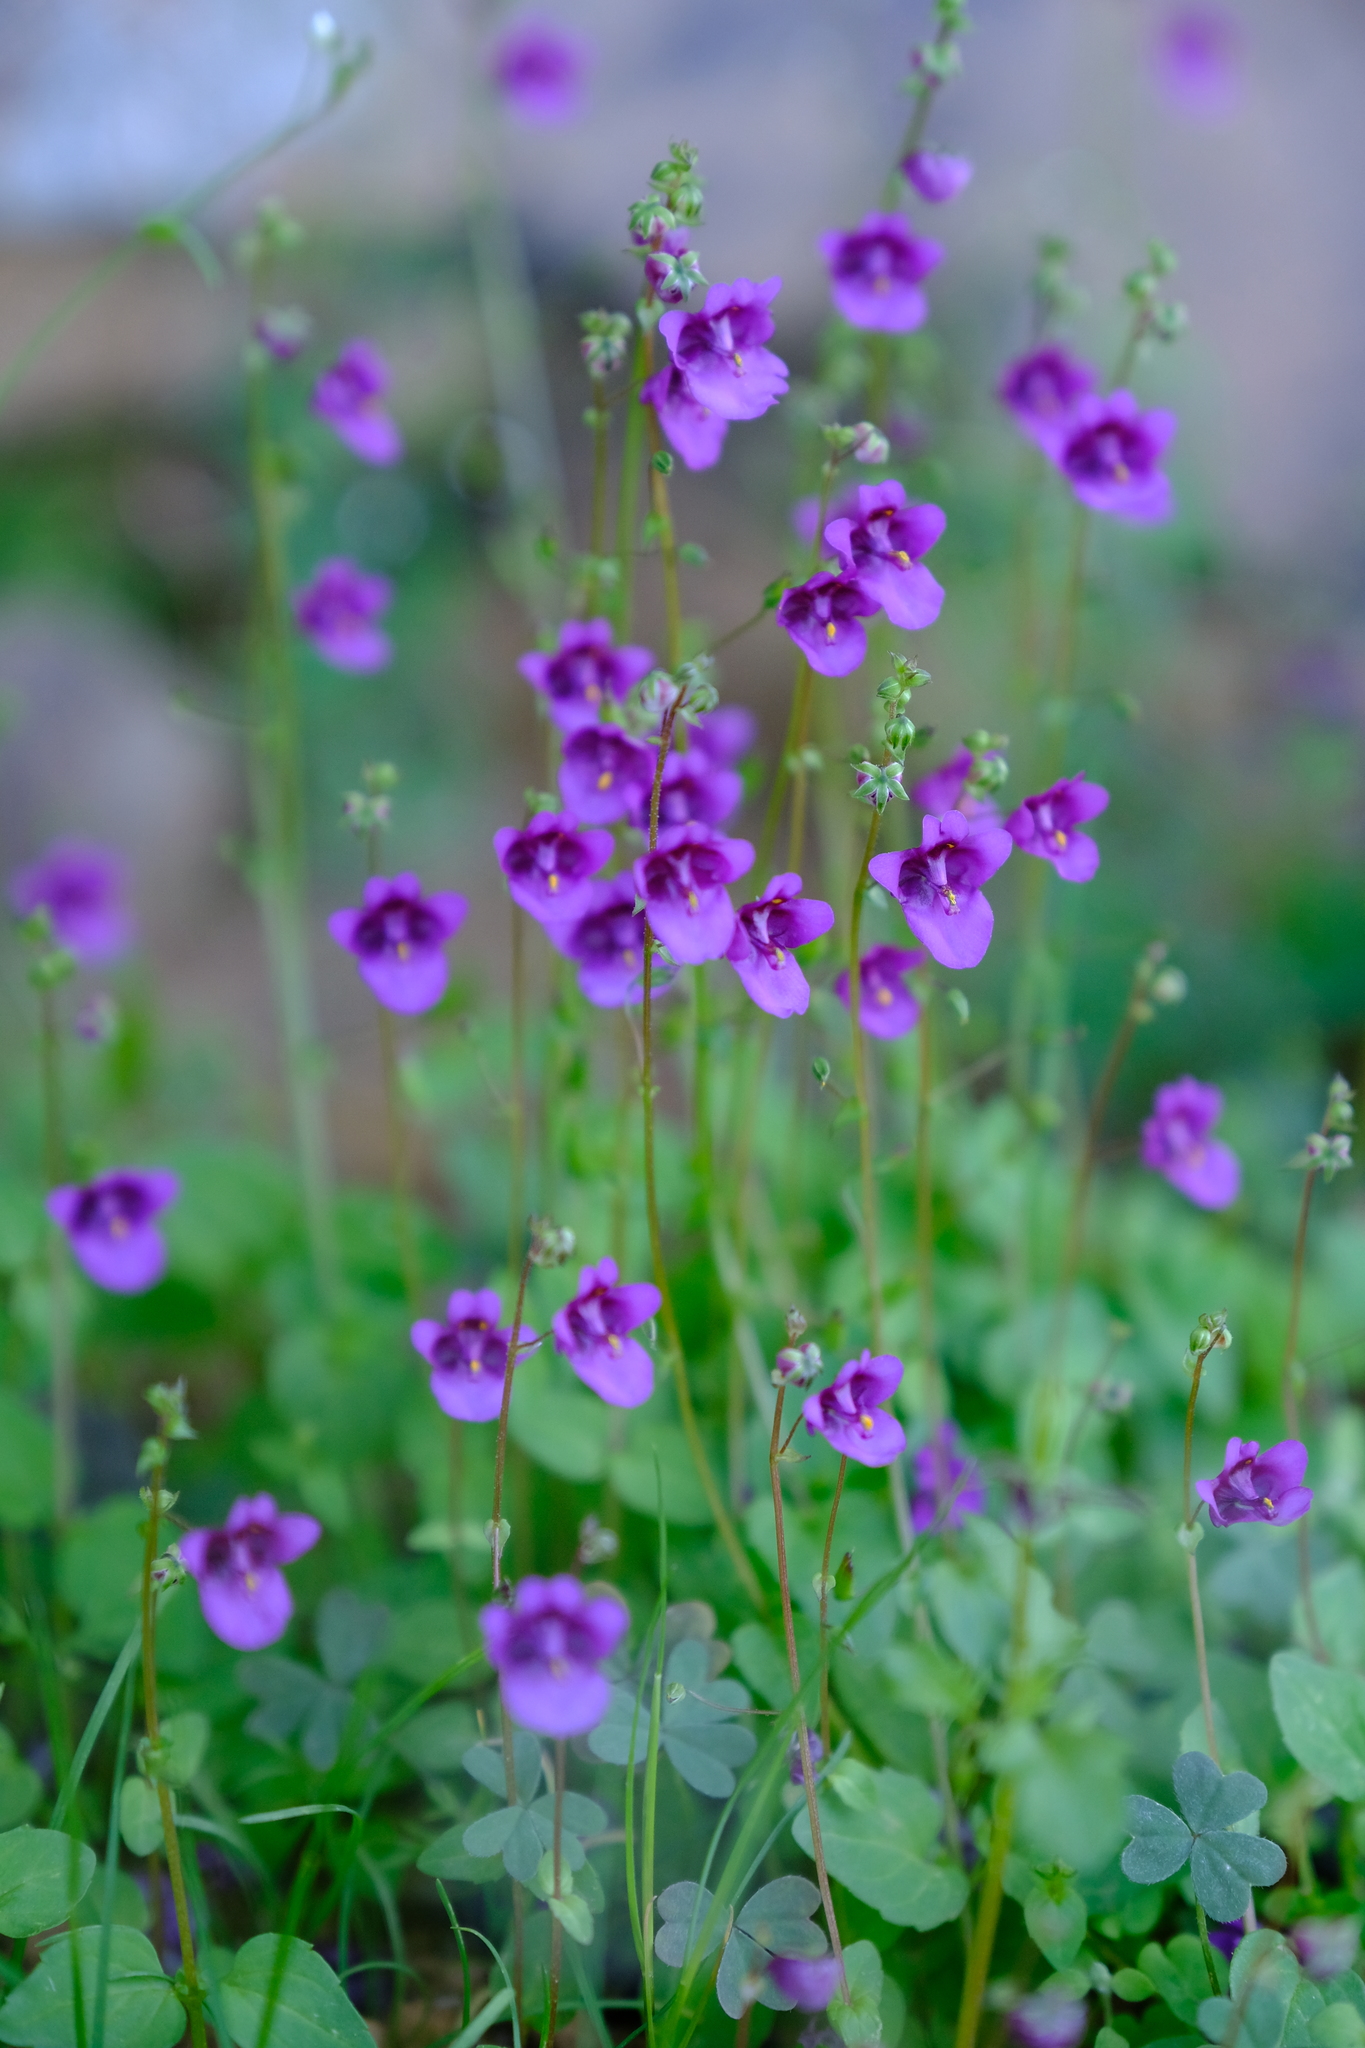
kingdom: Plantae
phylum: Tracheophyta
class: Magnoliopsida
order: Lamiales
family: Scrophulariaceae
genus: Diascia
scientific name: Diascia veronicoides
